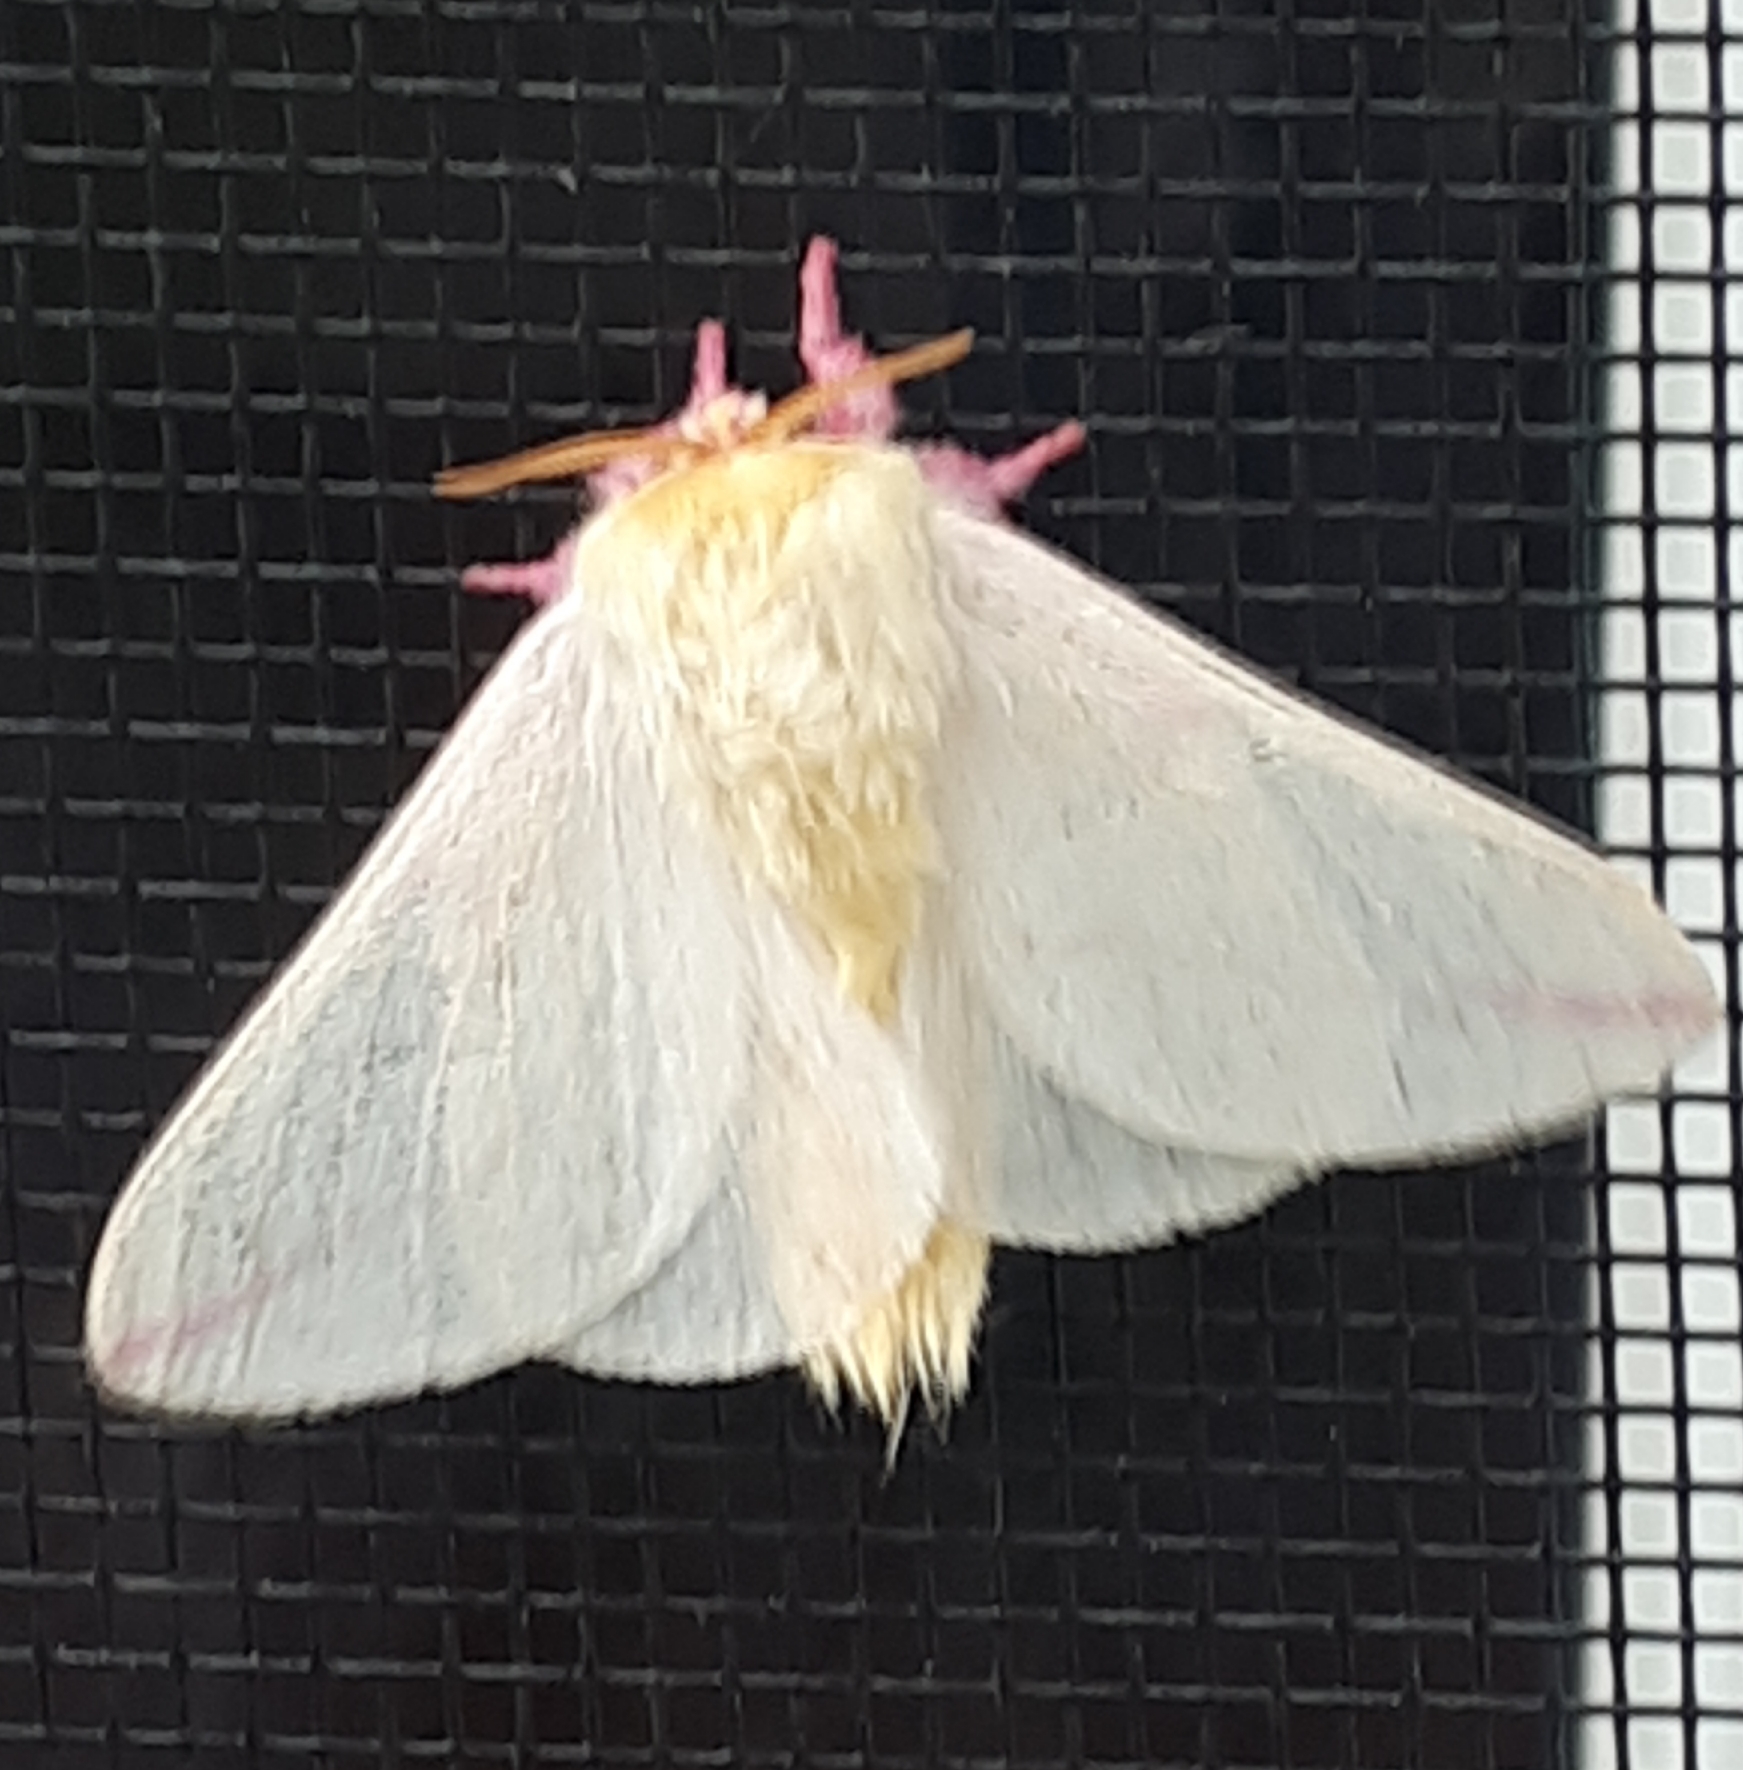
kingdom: Animalia
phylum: Arthropoda
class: Insecta
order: Lepidoptera
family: Saturniidae
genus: Dryocampa
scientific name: Dryocampa rubicunda
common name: Rosy maple moth
